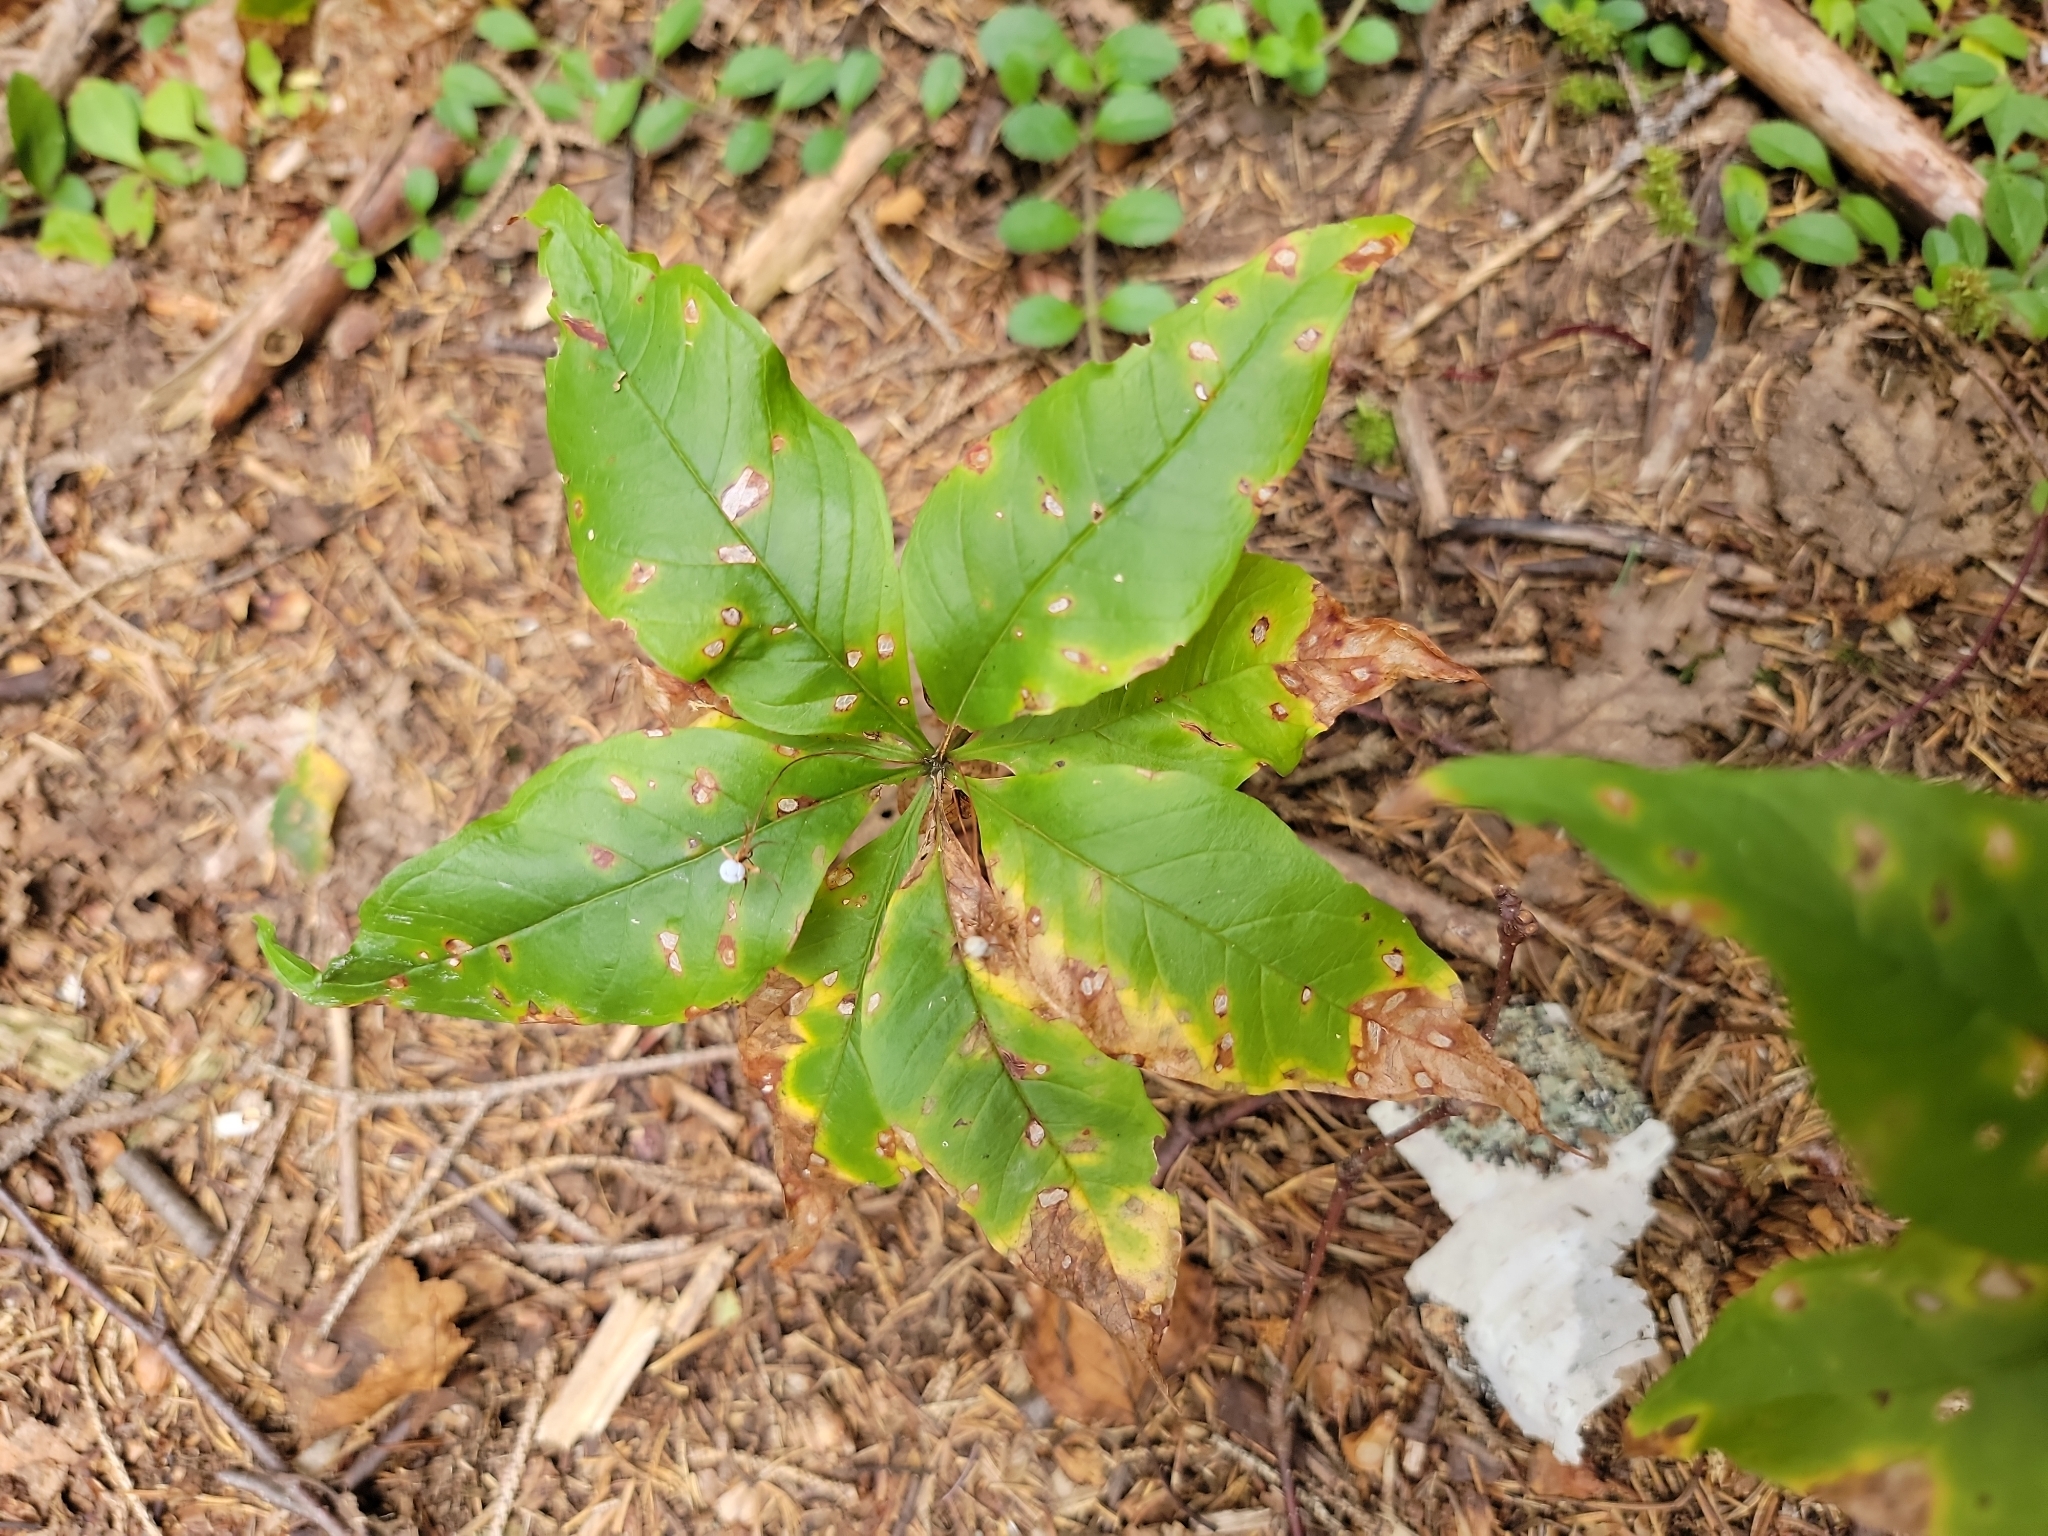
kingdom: Plantae
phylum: Tracheophyta
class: Magnoliopsida
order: Ericales
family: Primulaceae
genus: Lysimachia
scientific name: Lysimachia borealis
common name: American starflower
